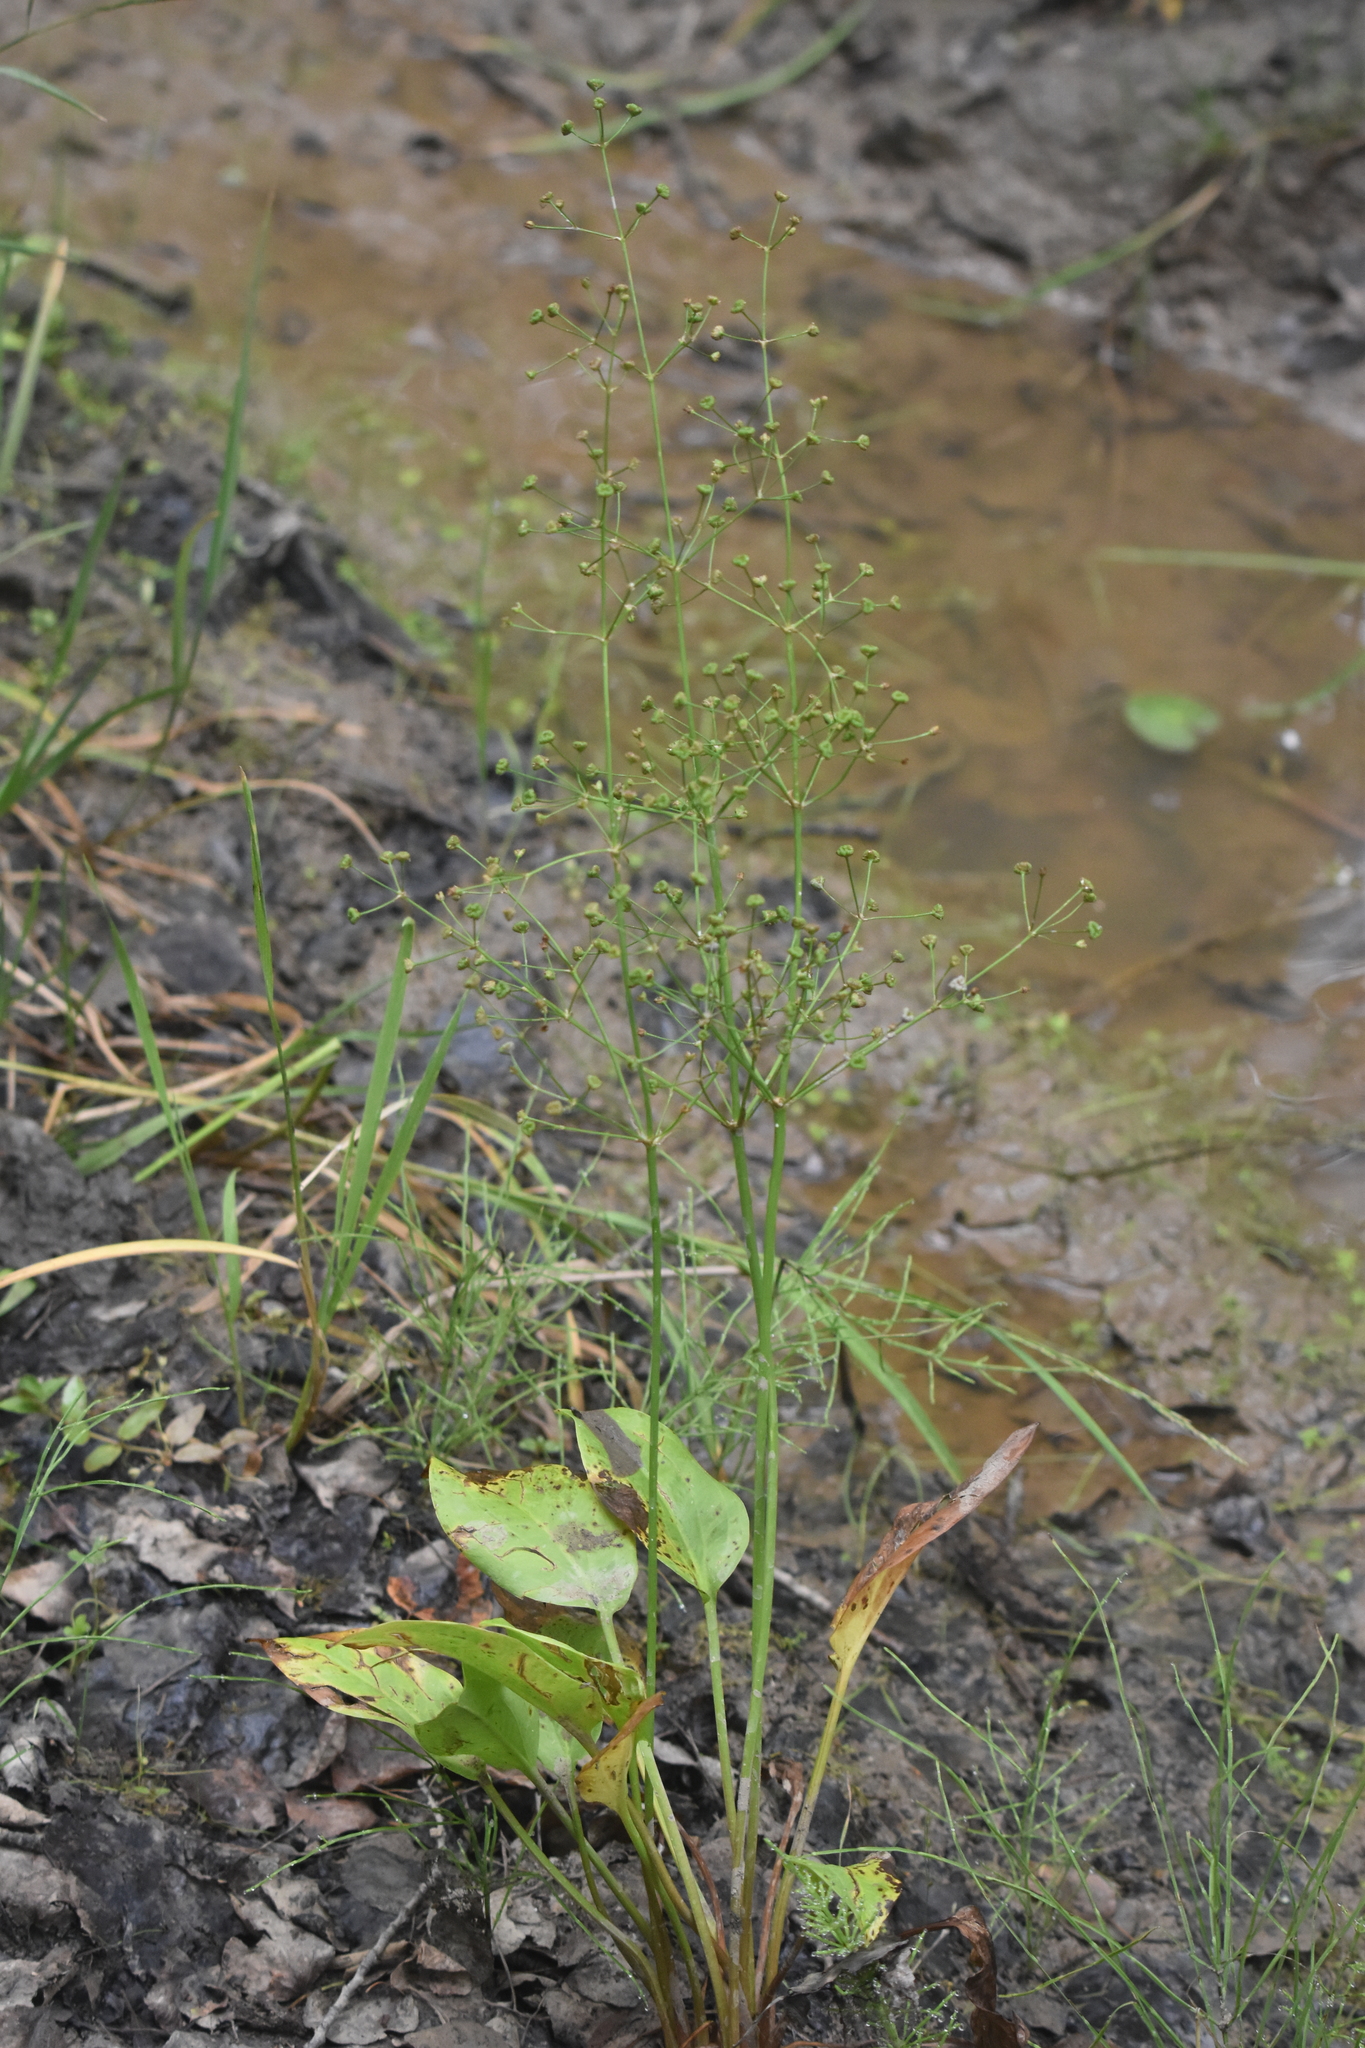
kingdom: Plantae
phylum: Tracheophyta
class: Liliopsida
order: Alismatales
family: Alismataceae
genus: Alisma
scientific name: Alisma triviale
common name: Northern water-plantain
